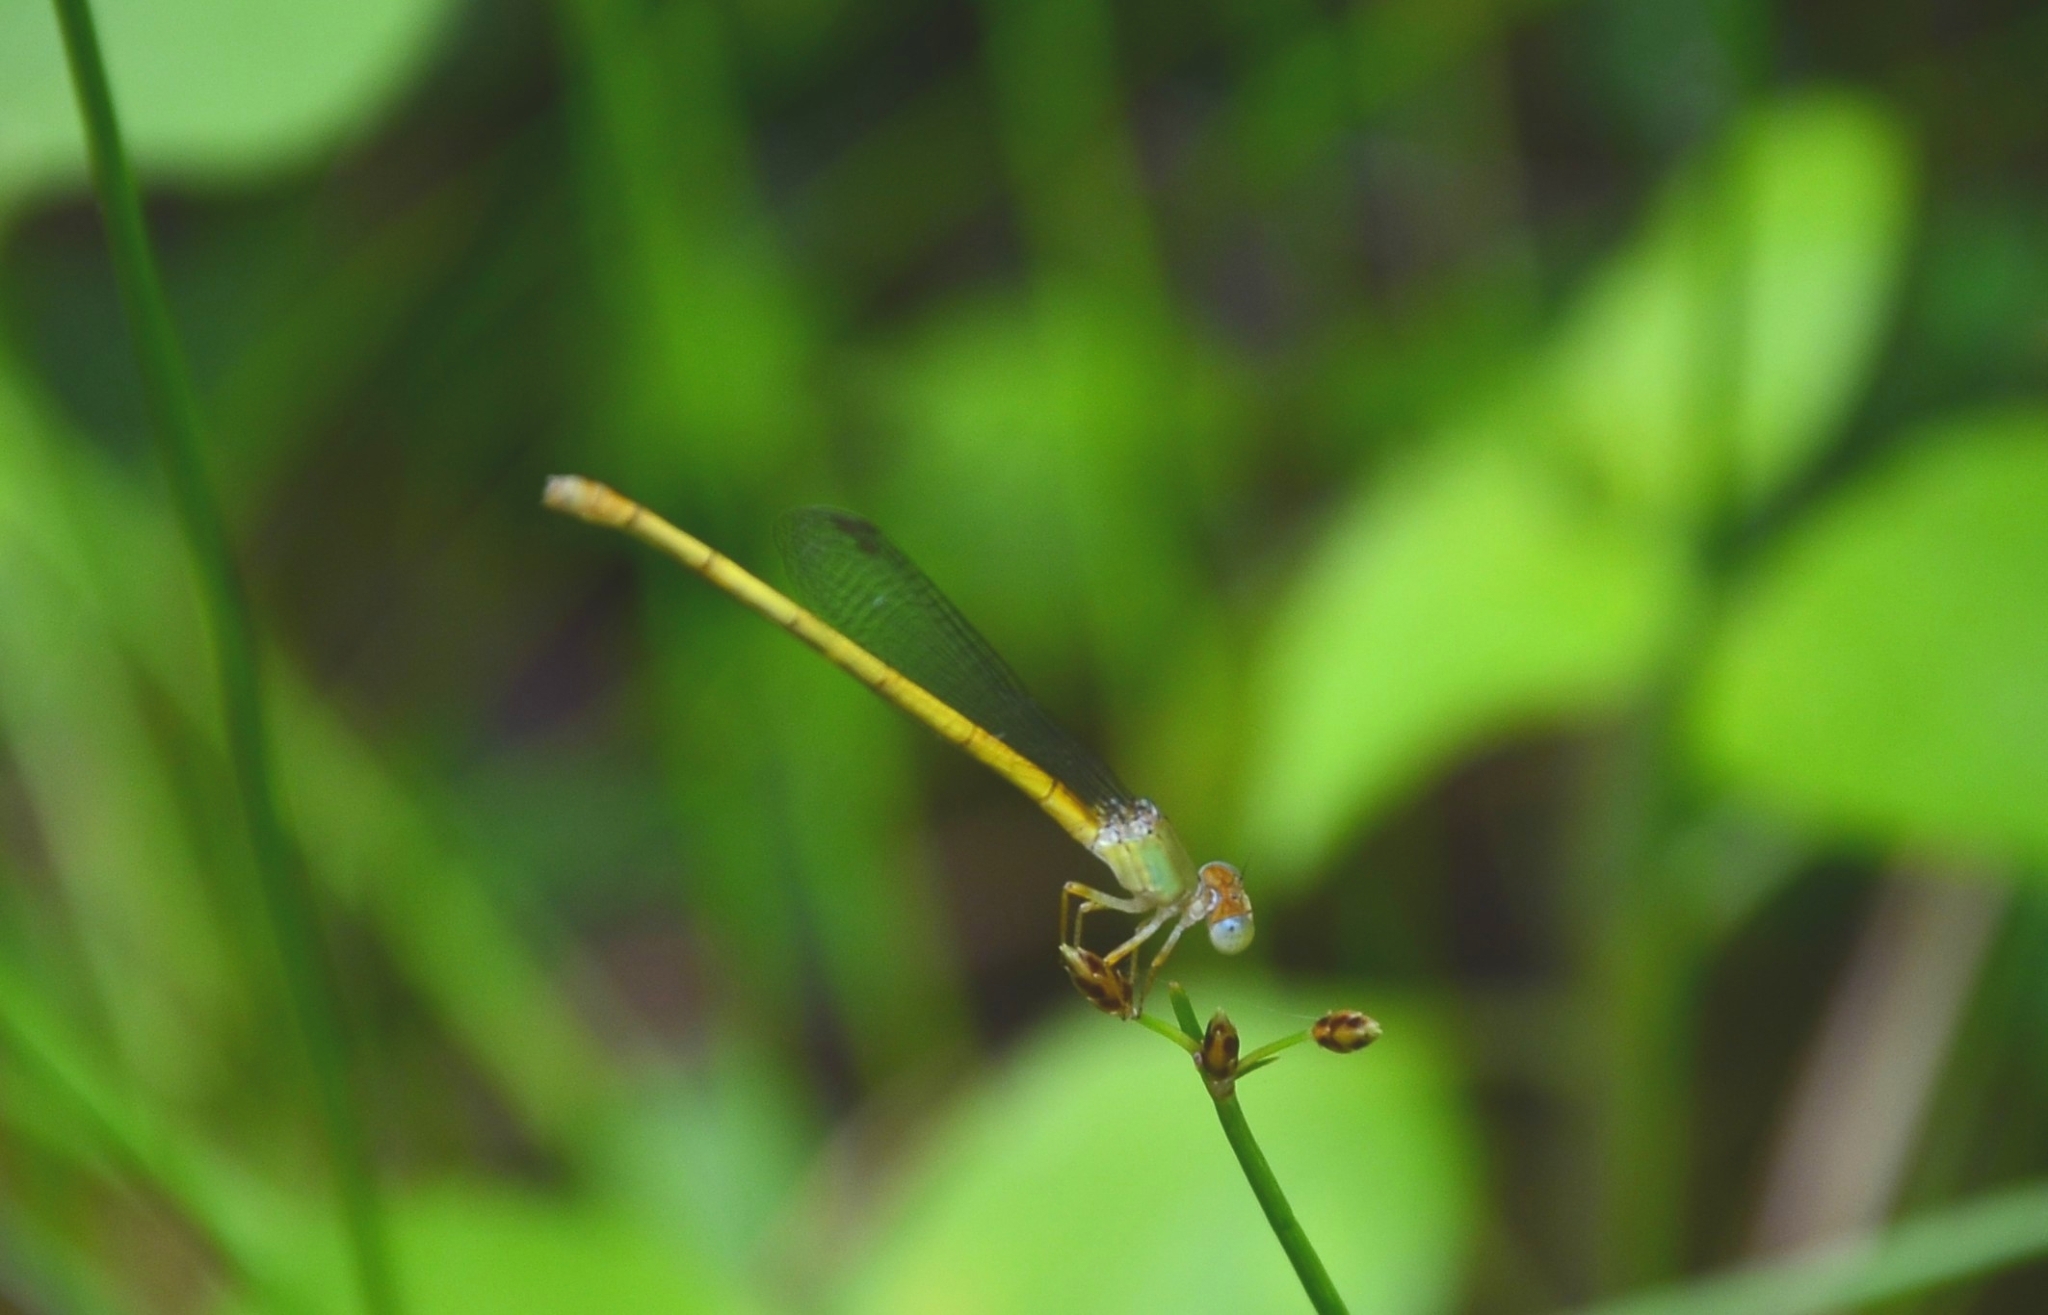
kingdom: Animalia
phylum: Arthropoda
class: Insecta
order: Odonata
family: Coenagrionidae
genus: Ceriagrion
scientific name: Ceriagrion coromandelianum
